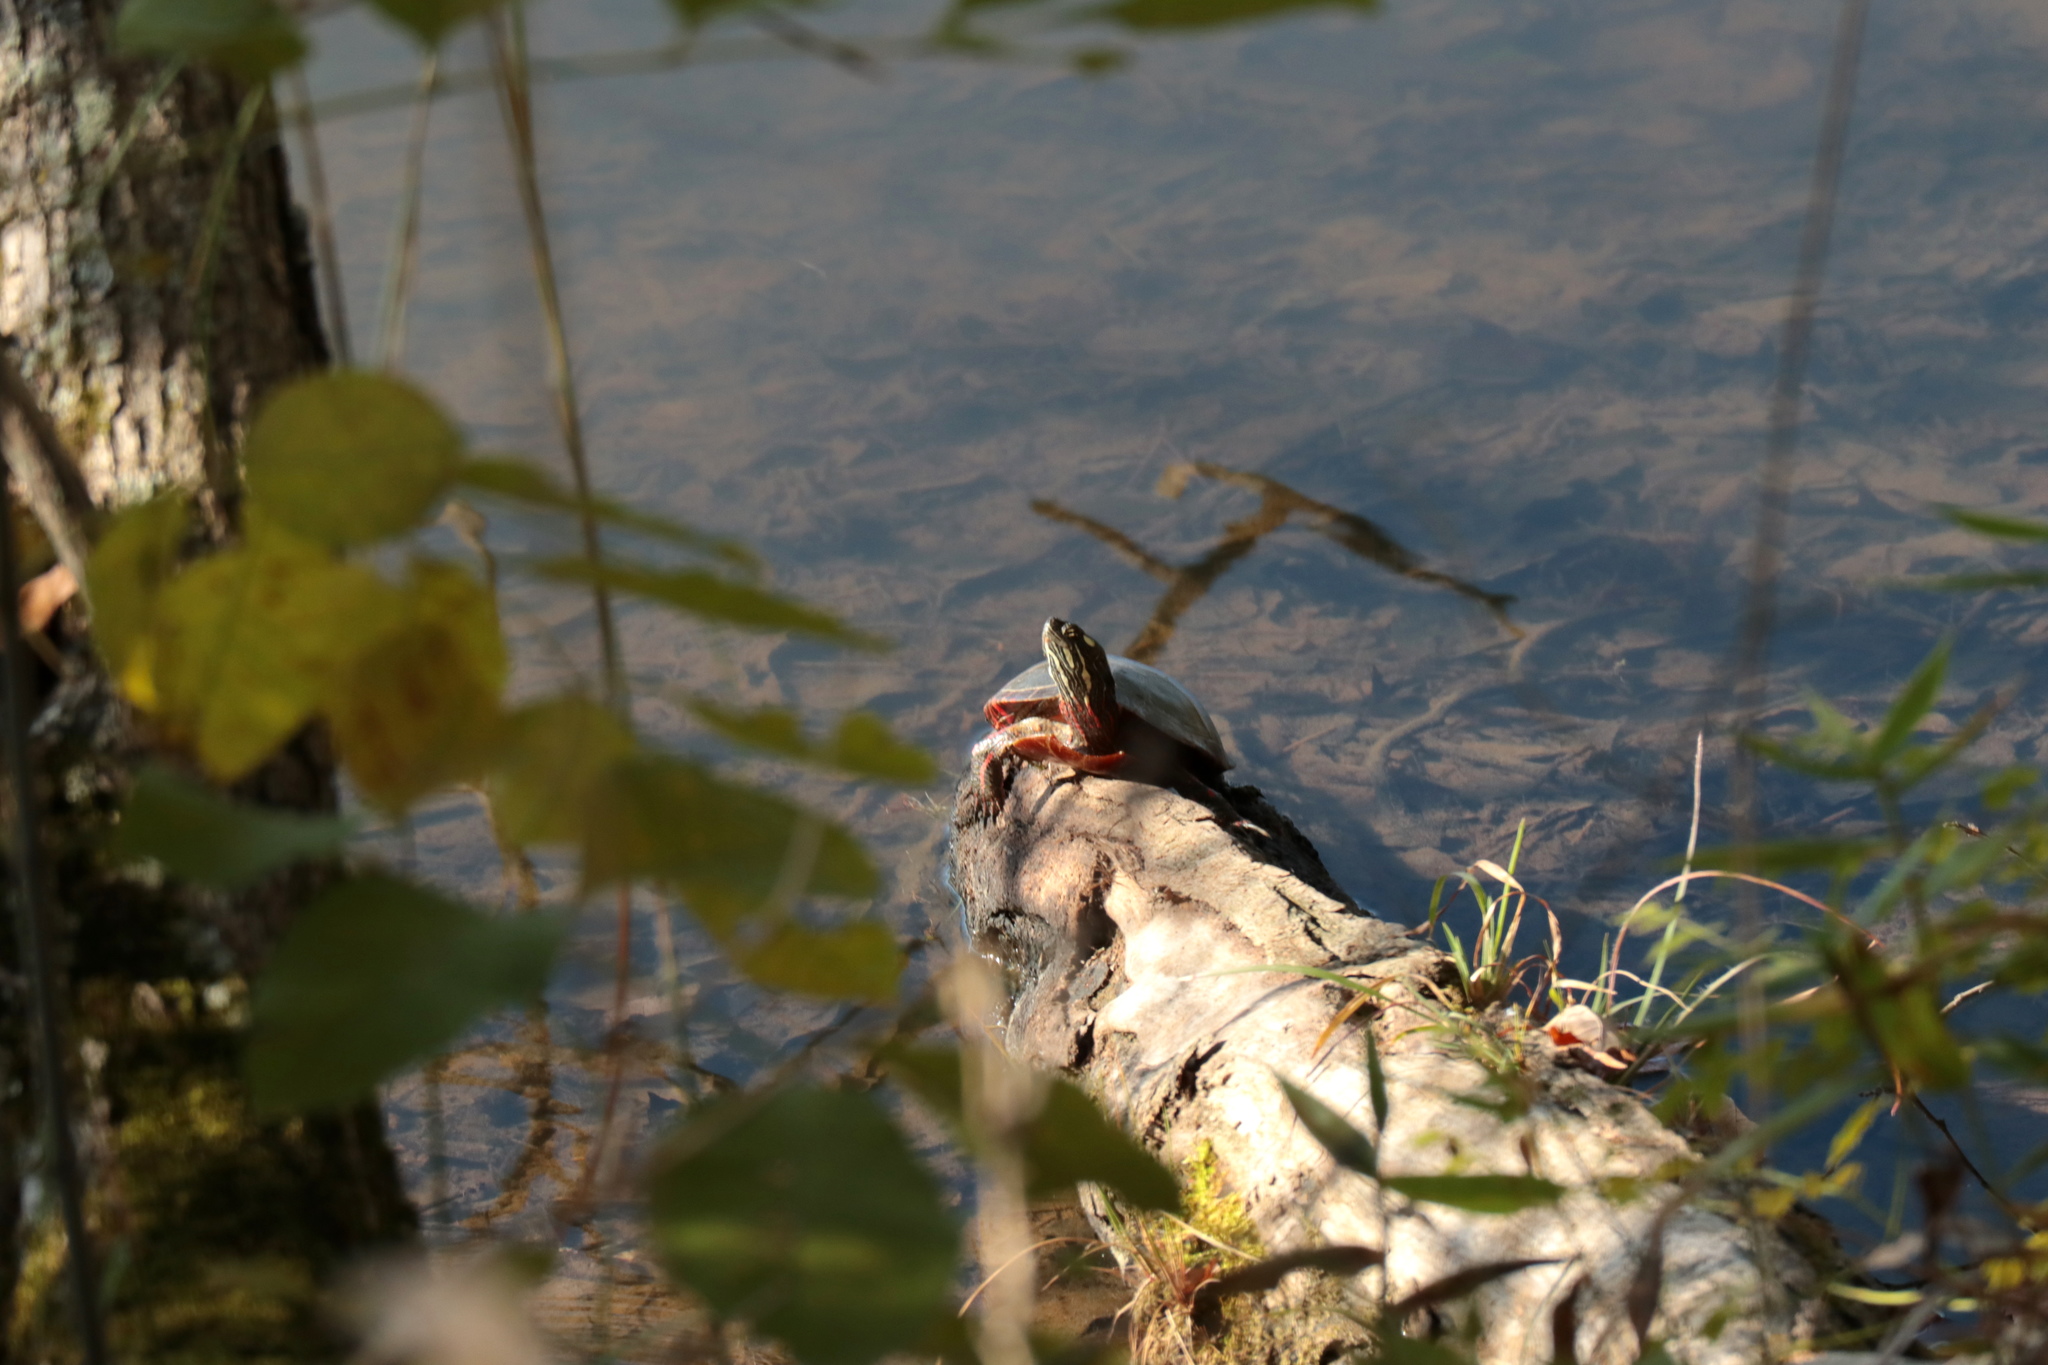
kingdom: Animalia
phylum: Chordata
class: Testudines
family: Emydidae
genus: Chrysemys
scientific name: Chrysemys picta
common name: Painted turtle
